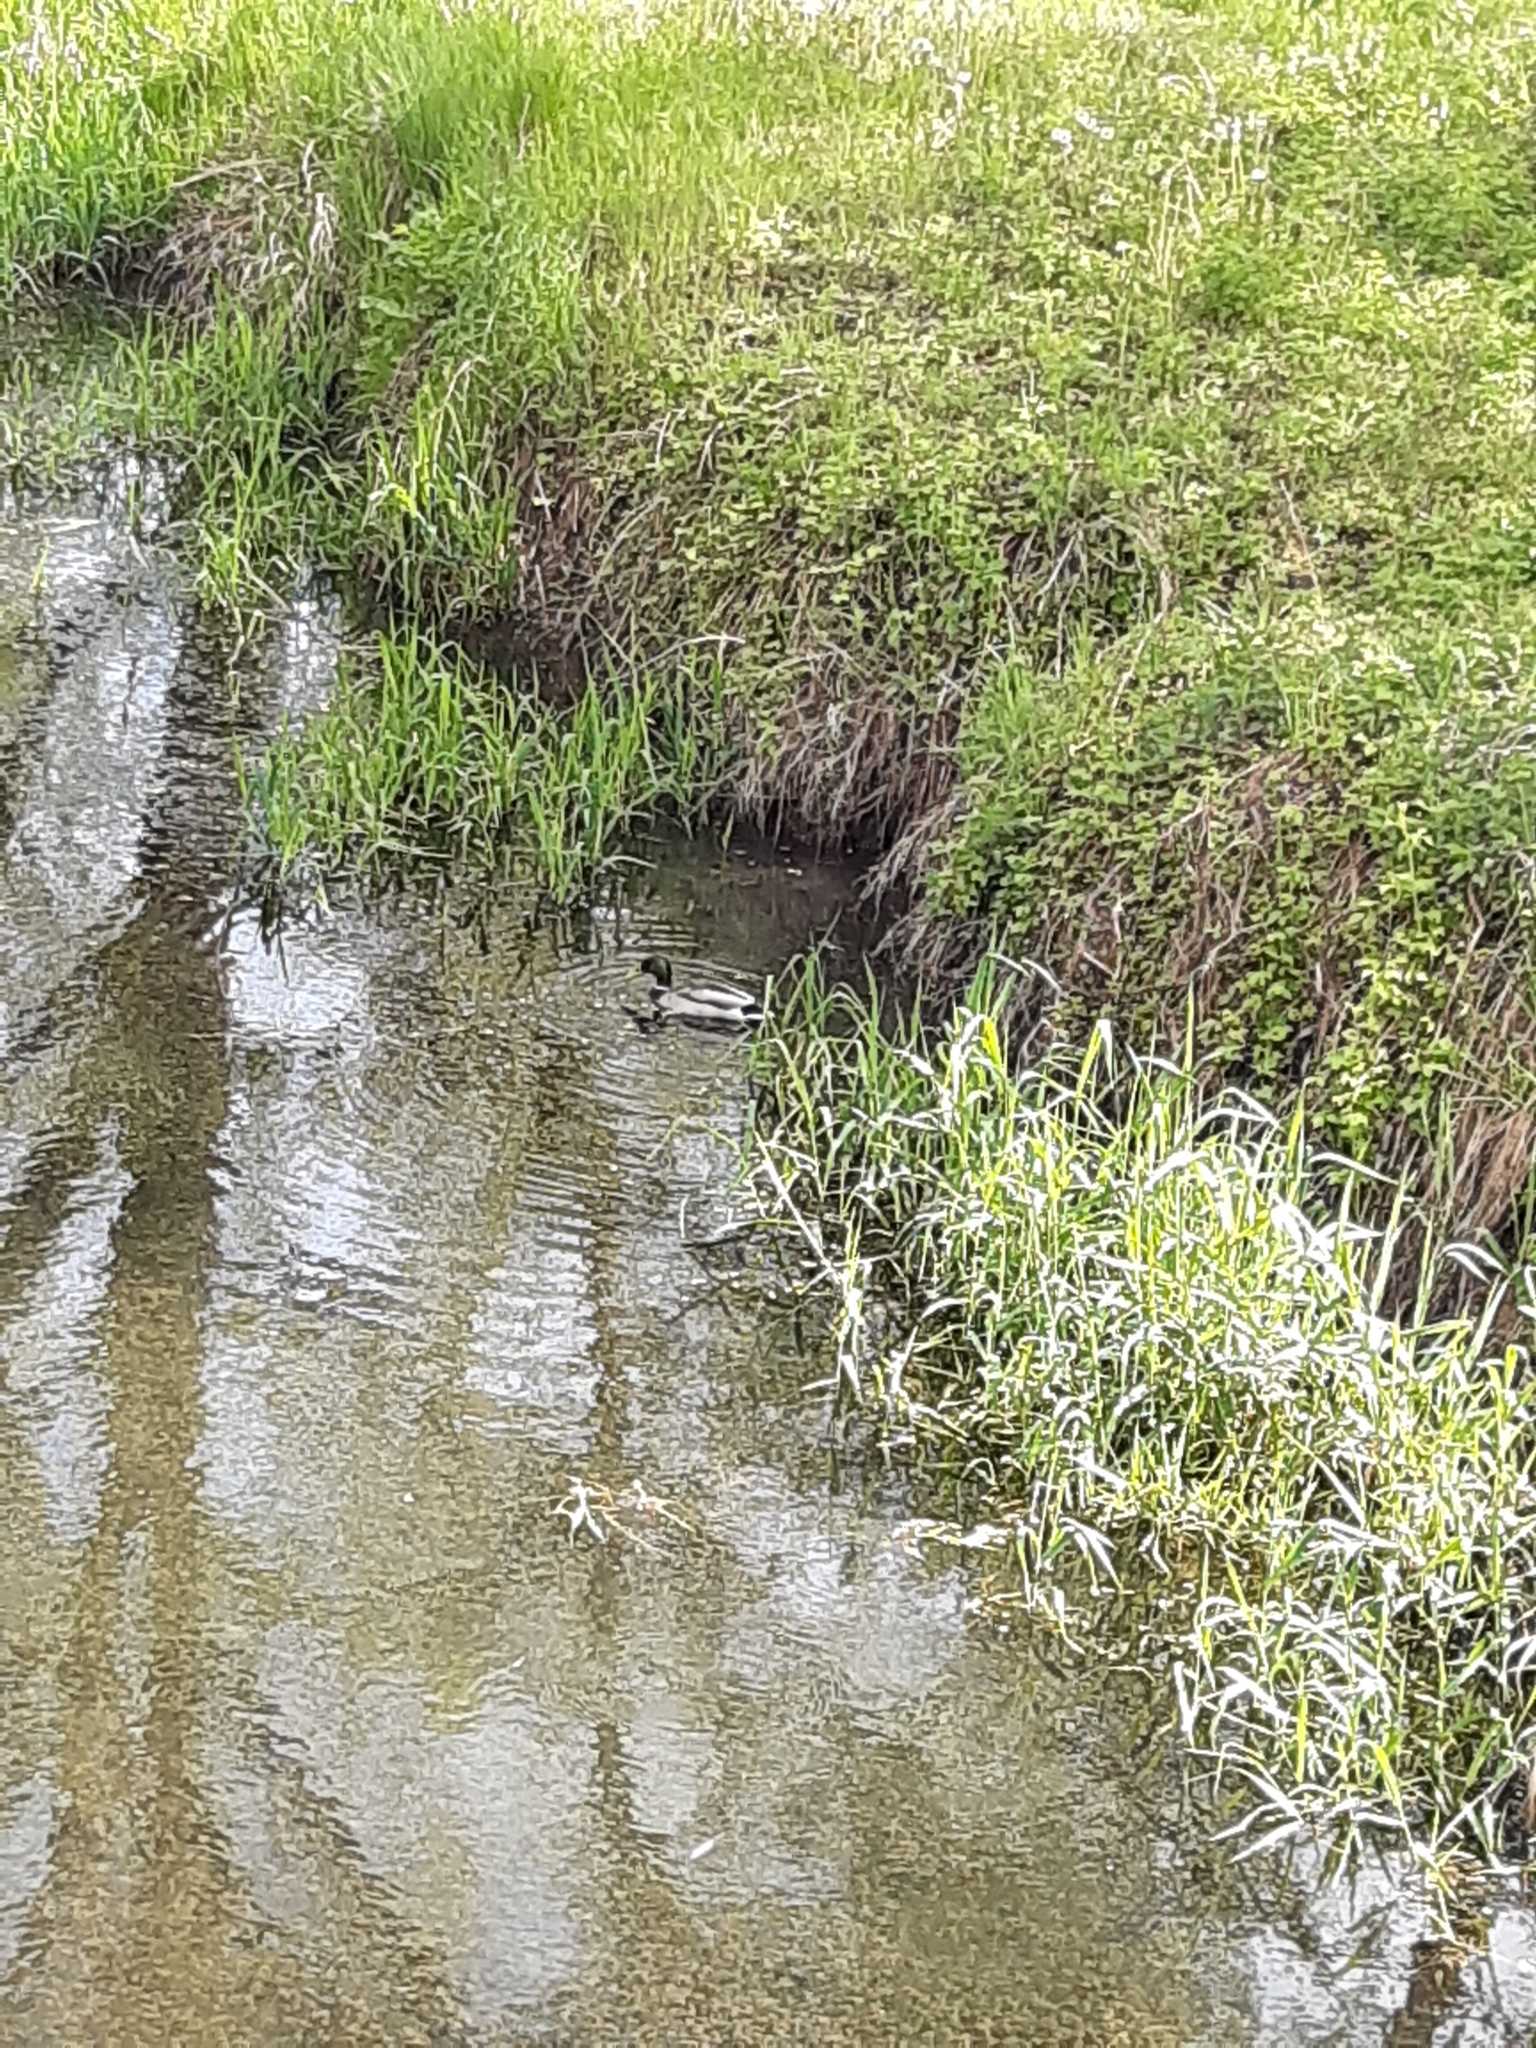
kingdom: Animalia
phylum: Chordata
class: Aves
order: Anseriformes
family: Anatidae
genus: Anas
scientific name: Anas platyrhynchos
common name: Mallard
